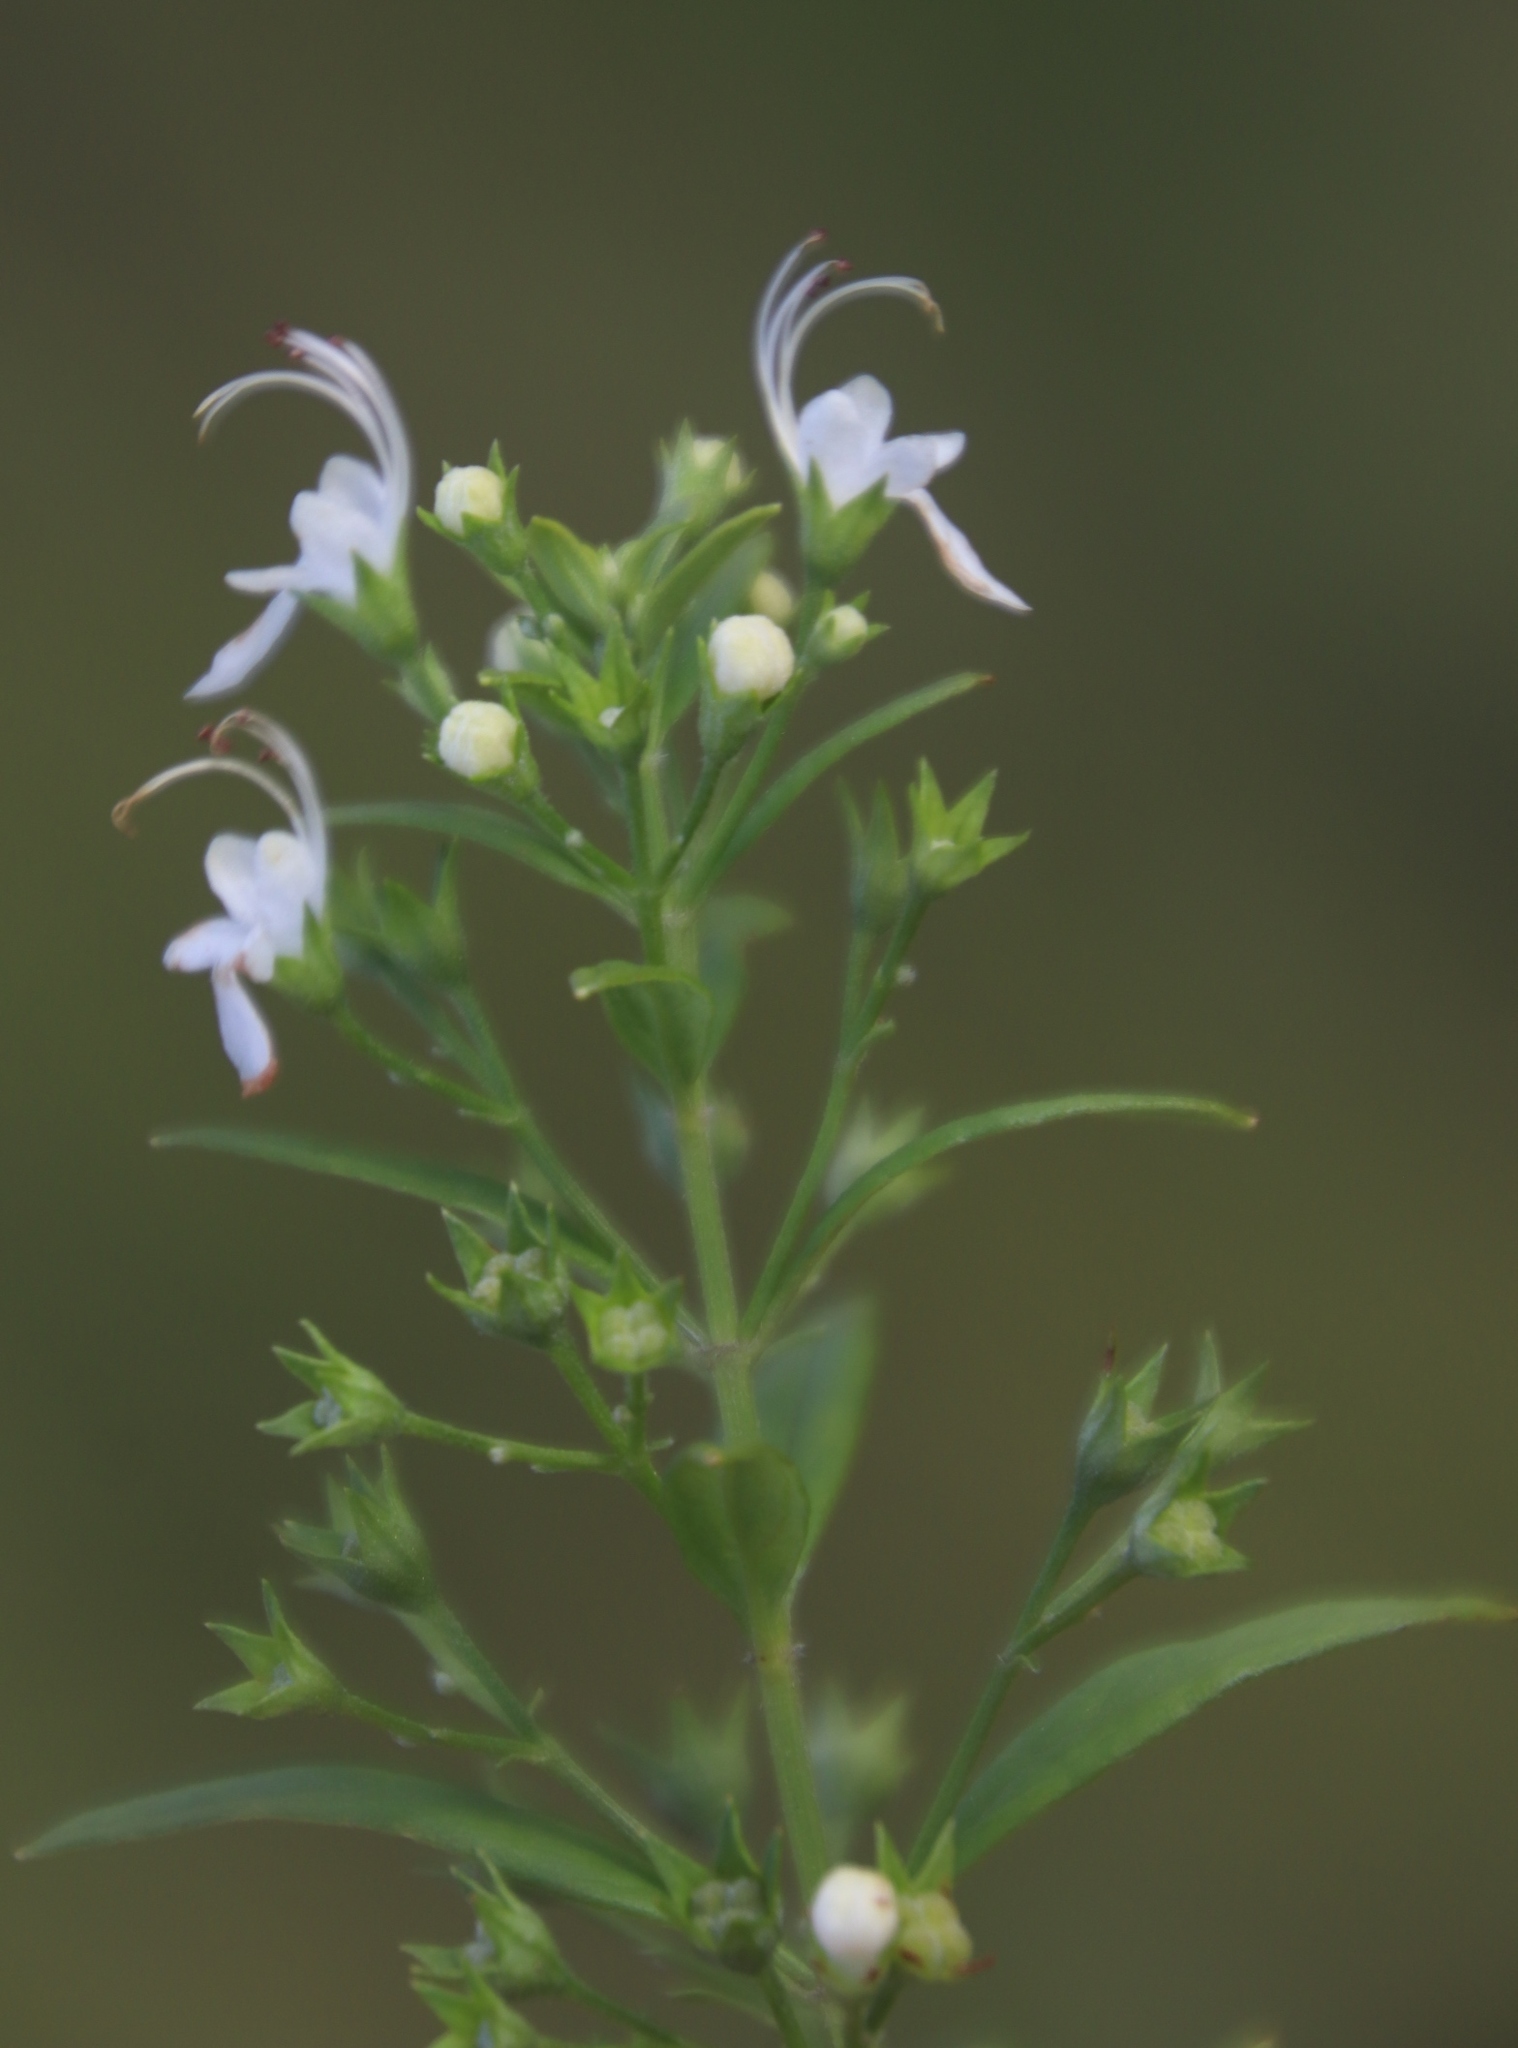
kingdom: Plantae
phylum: Tracheophyta
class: Magnoliopsida
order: Lamiales
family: Lamiaceae
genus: Teucrium
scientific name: Teucrium kraussii
